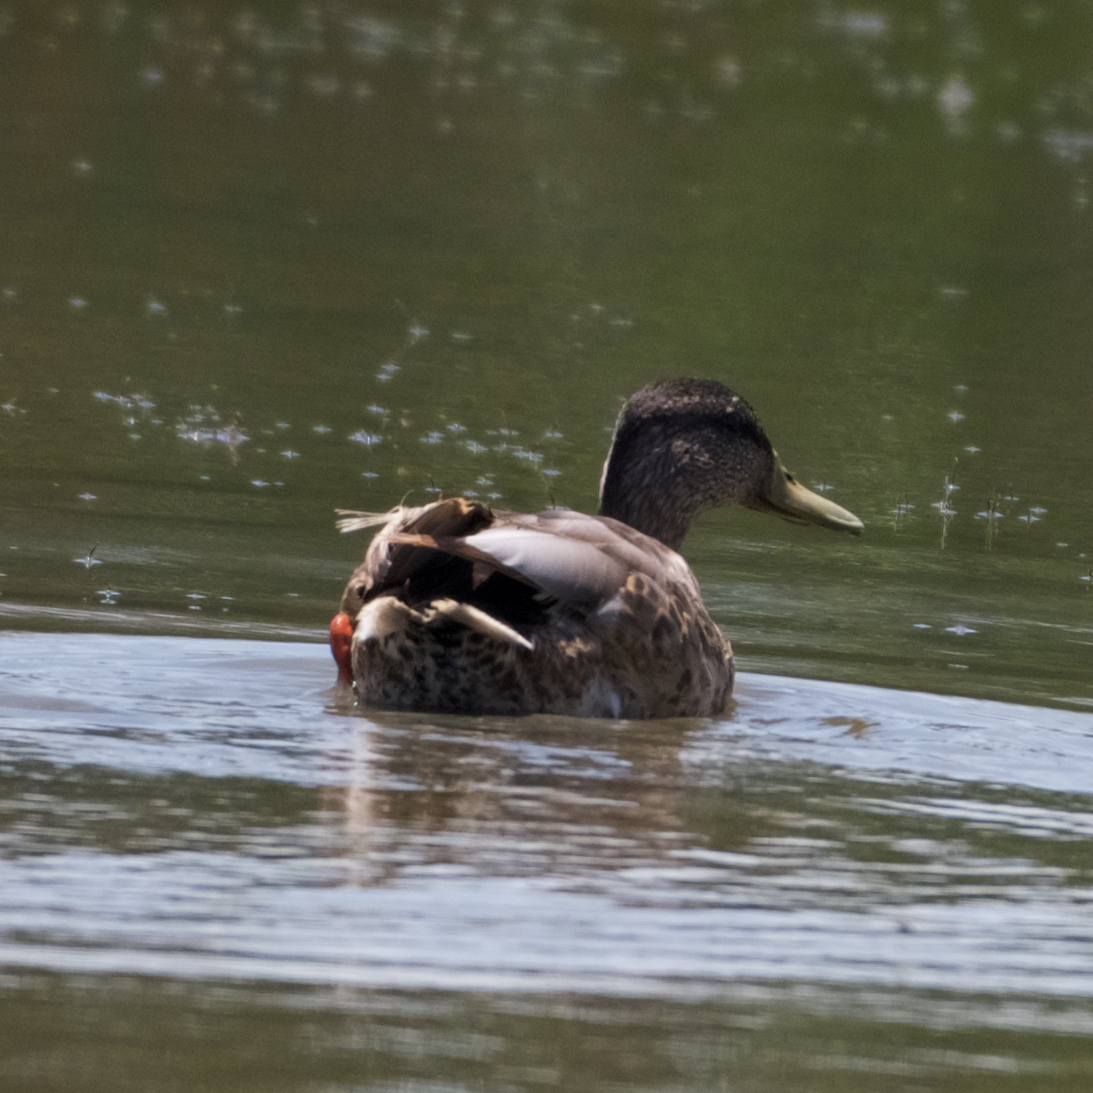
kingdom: Animalia
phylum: Chordata
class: Aves
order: Anseriformes
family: Anatidae
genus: Anas
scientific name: Anas platyrhynchos
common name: Mallard
